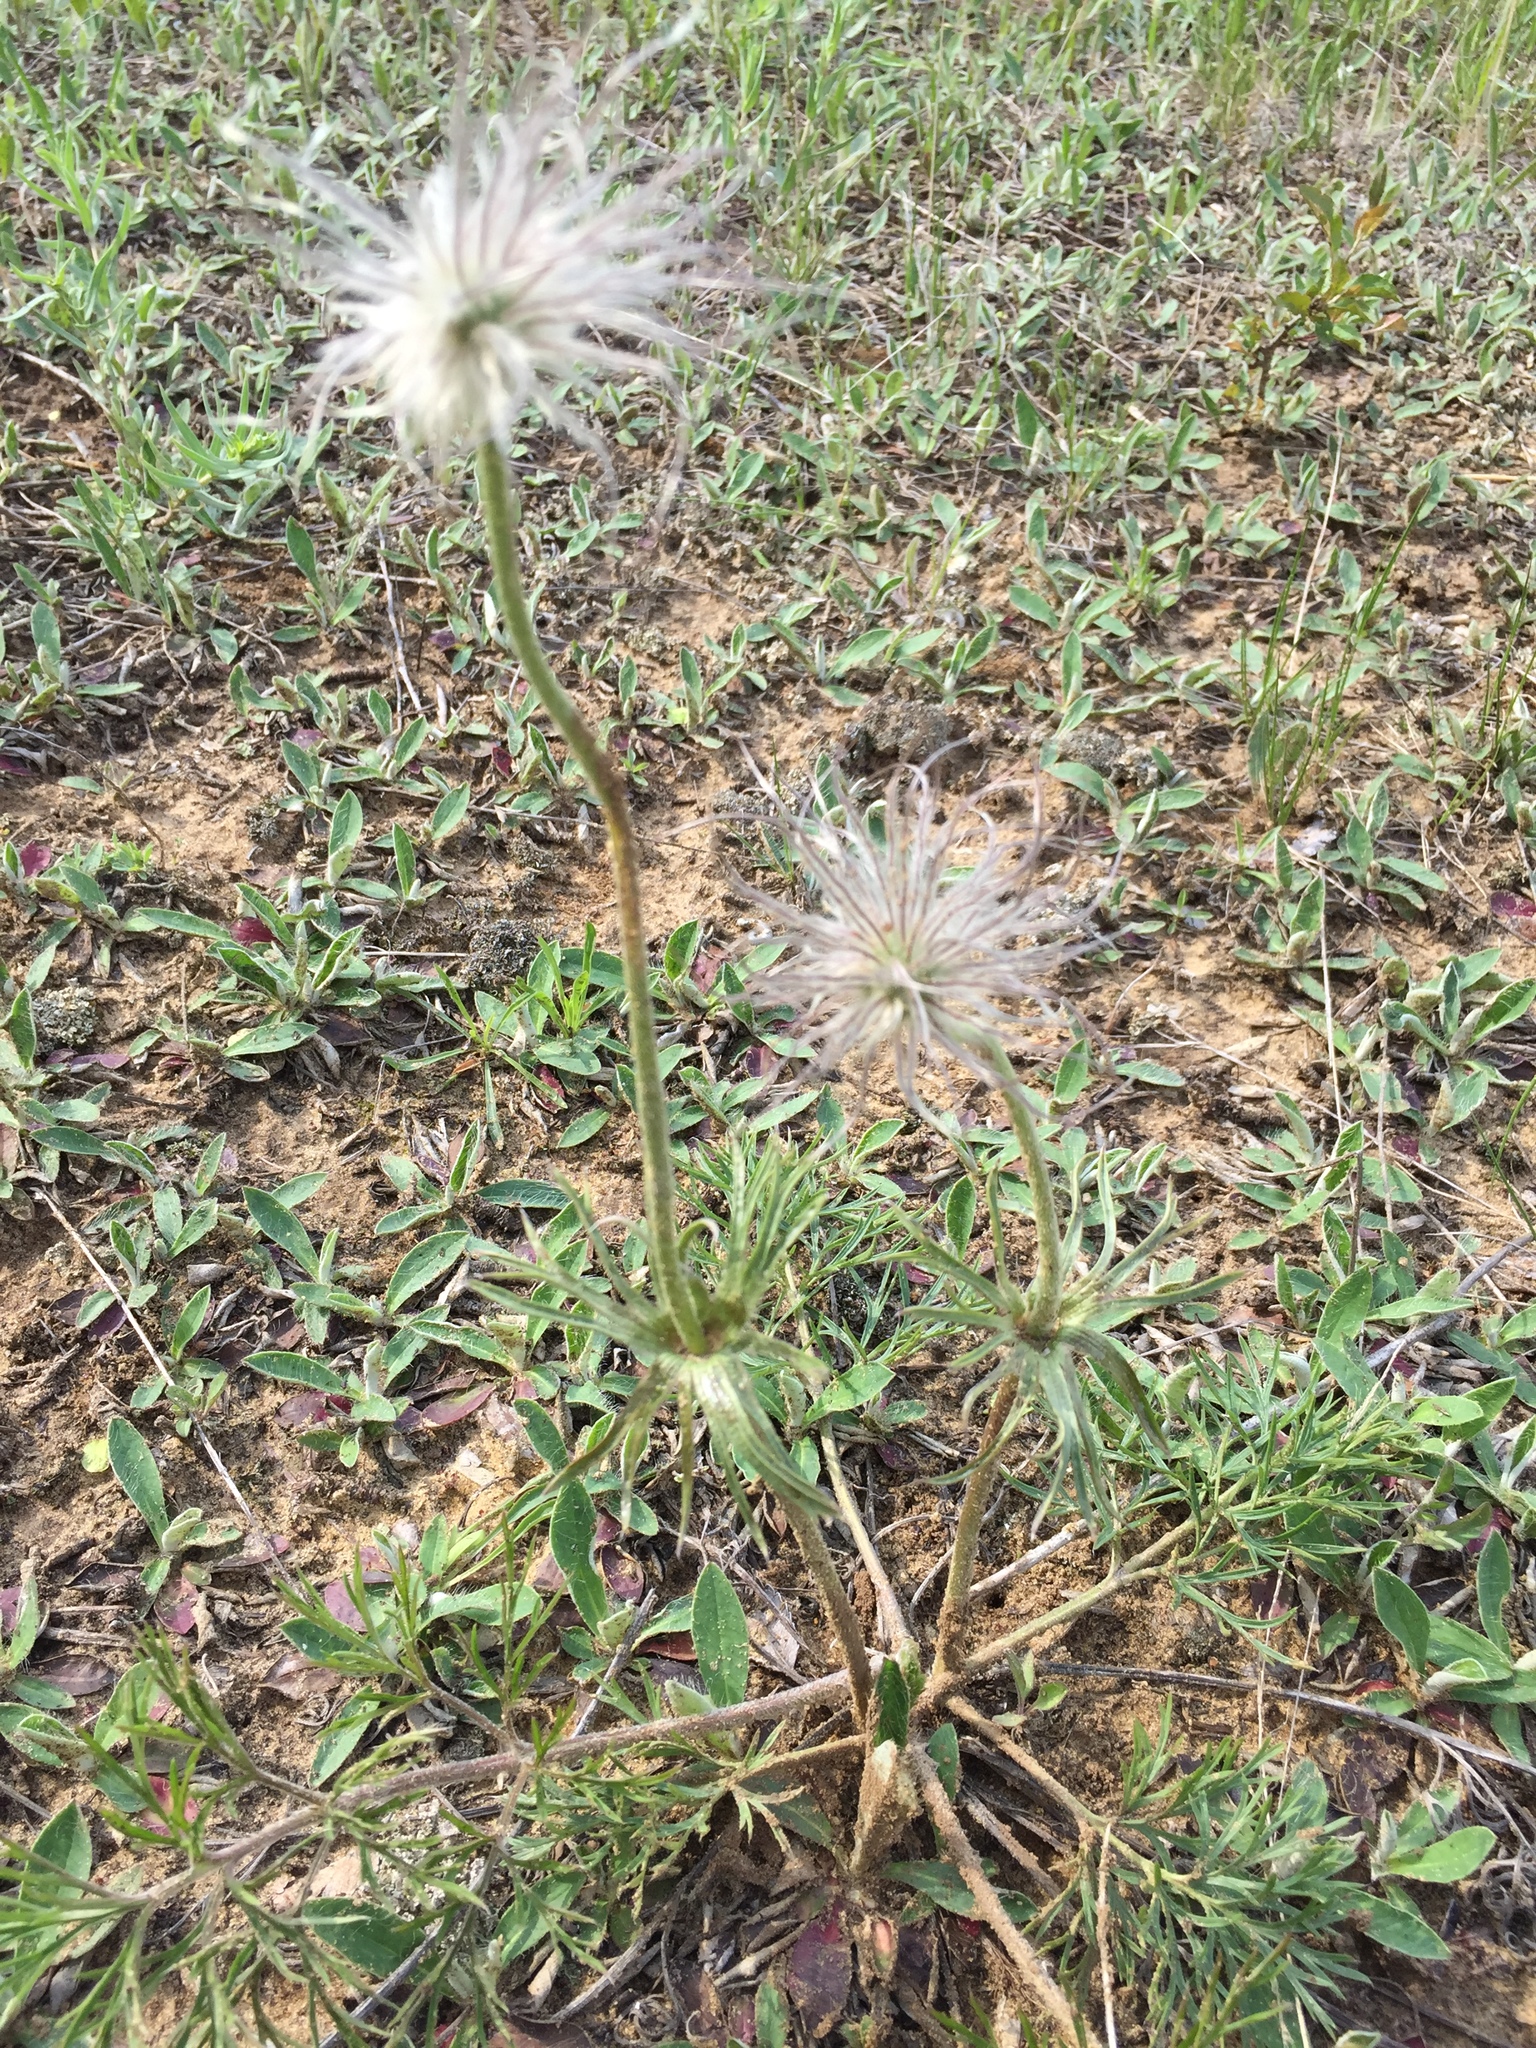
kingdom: Plantae
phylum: Tracheophyta
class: Magnoliopsida
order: Ranunculales
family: Ranunculaceae
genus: Pulsatilla
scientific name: Pulsatilla pratensis
